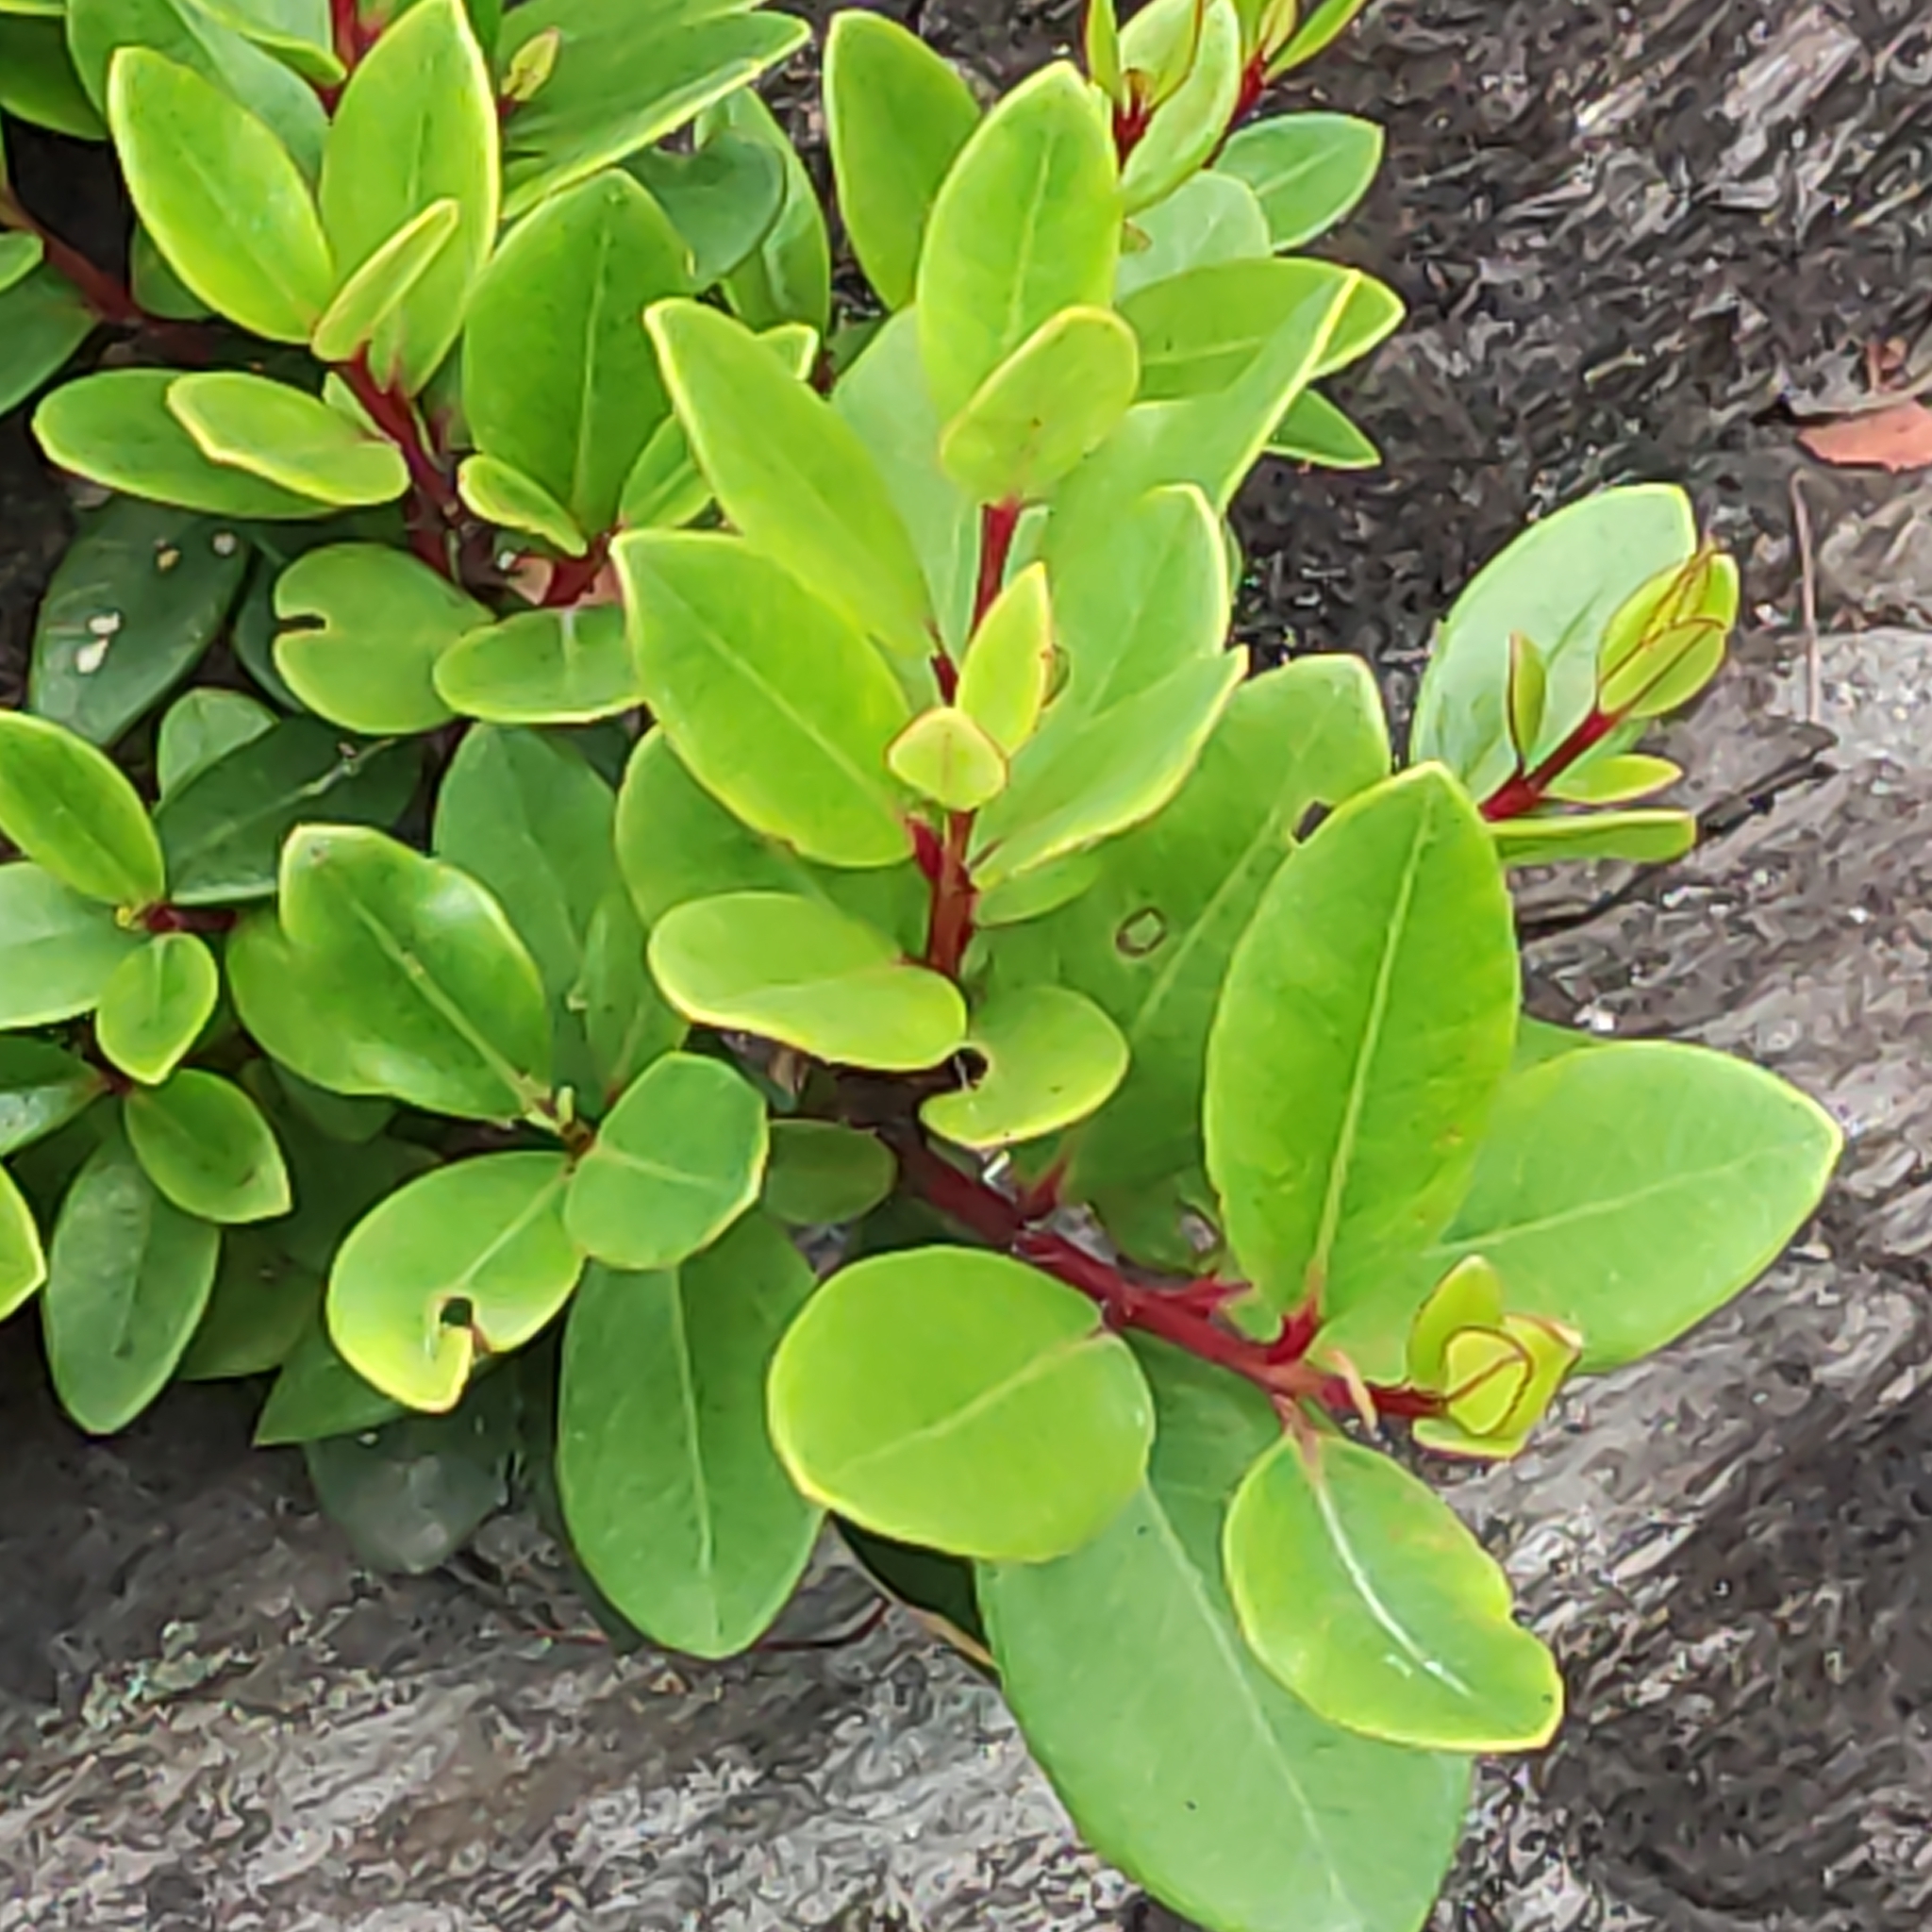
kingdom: Plantae
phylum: Tracheophyta
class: Magnoliopsida
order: Myrtales
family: Myrtaceae
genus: Metrosideros
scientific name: Metrosideros excelsa
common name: New zealand christmastree
